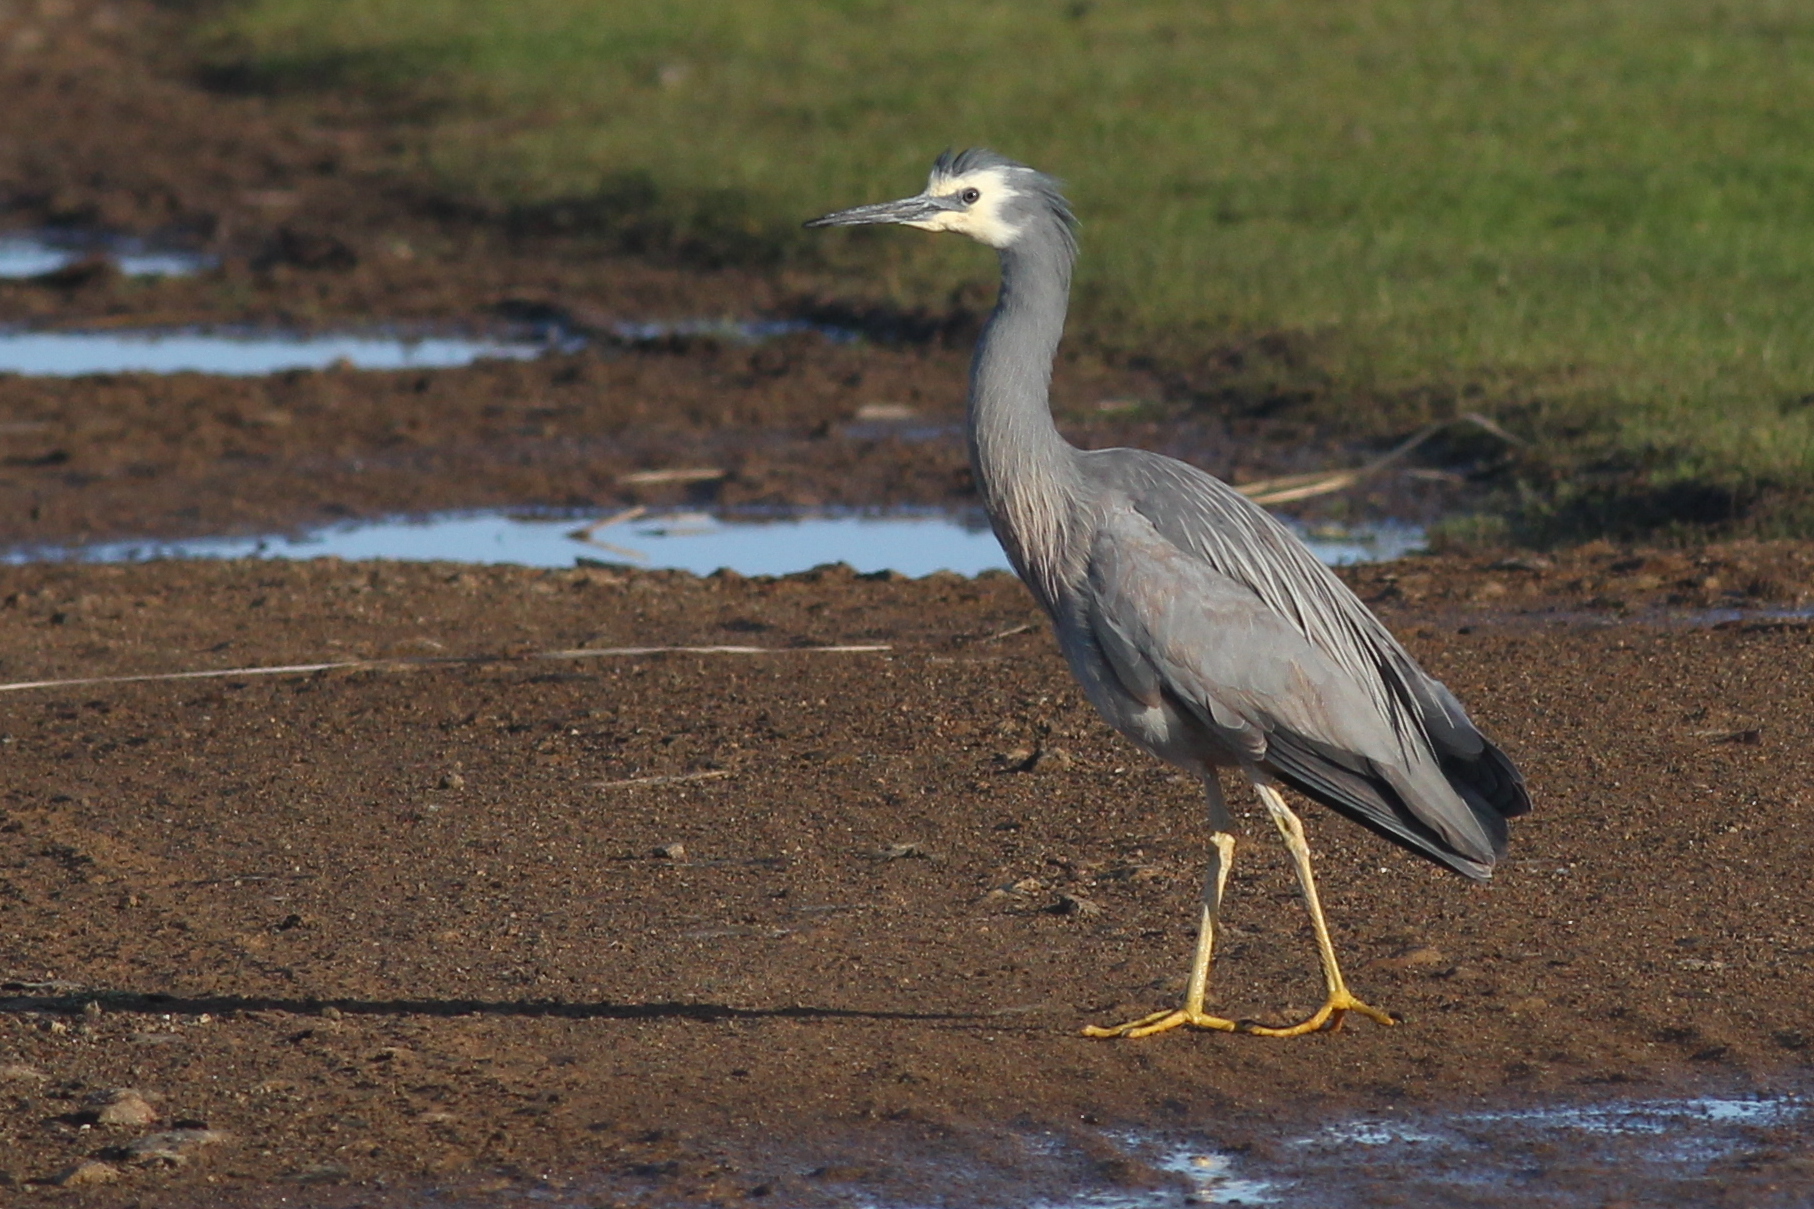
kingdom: Animalia
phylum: Chordata
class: Aves
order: Pelecaniformes
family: Ardeidae
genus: Egretta
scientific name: Egretta novaehollandiae
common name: White-faced heron
